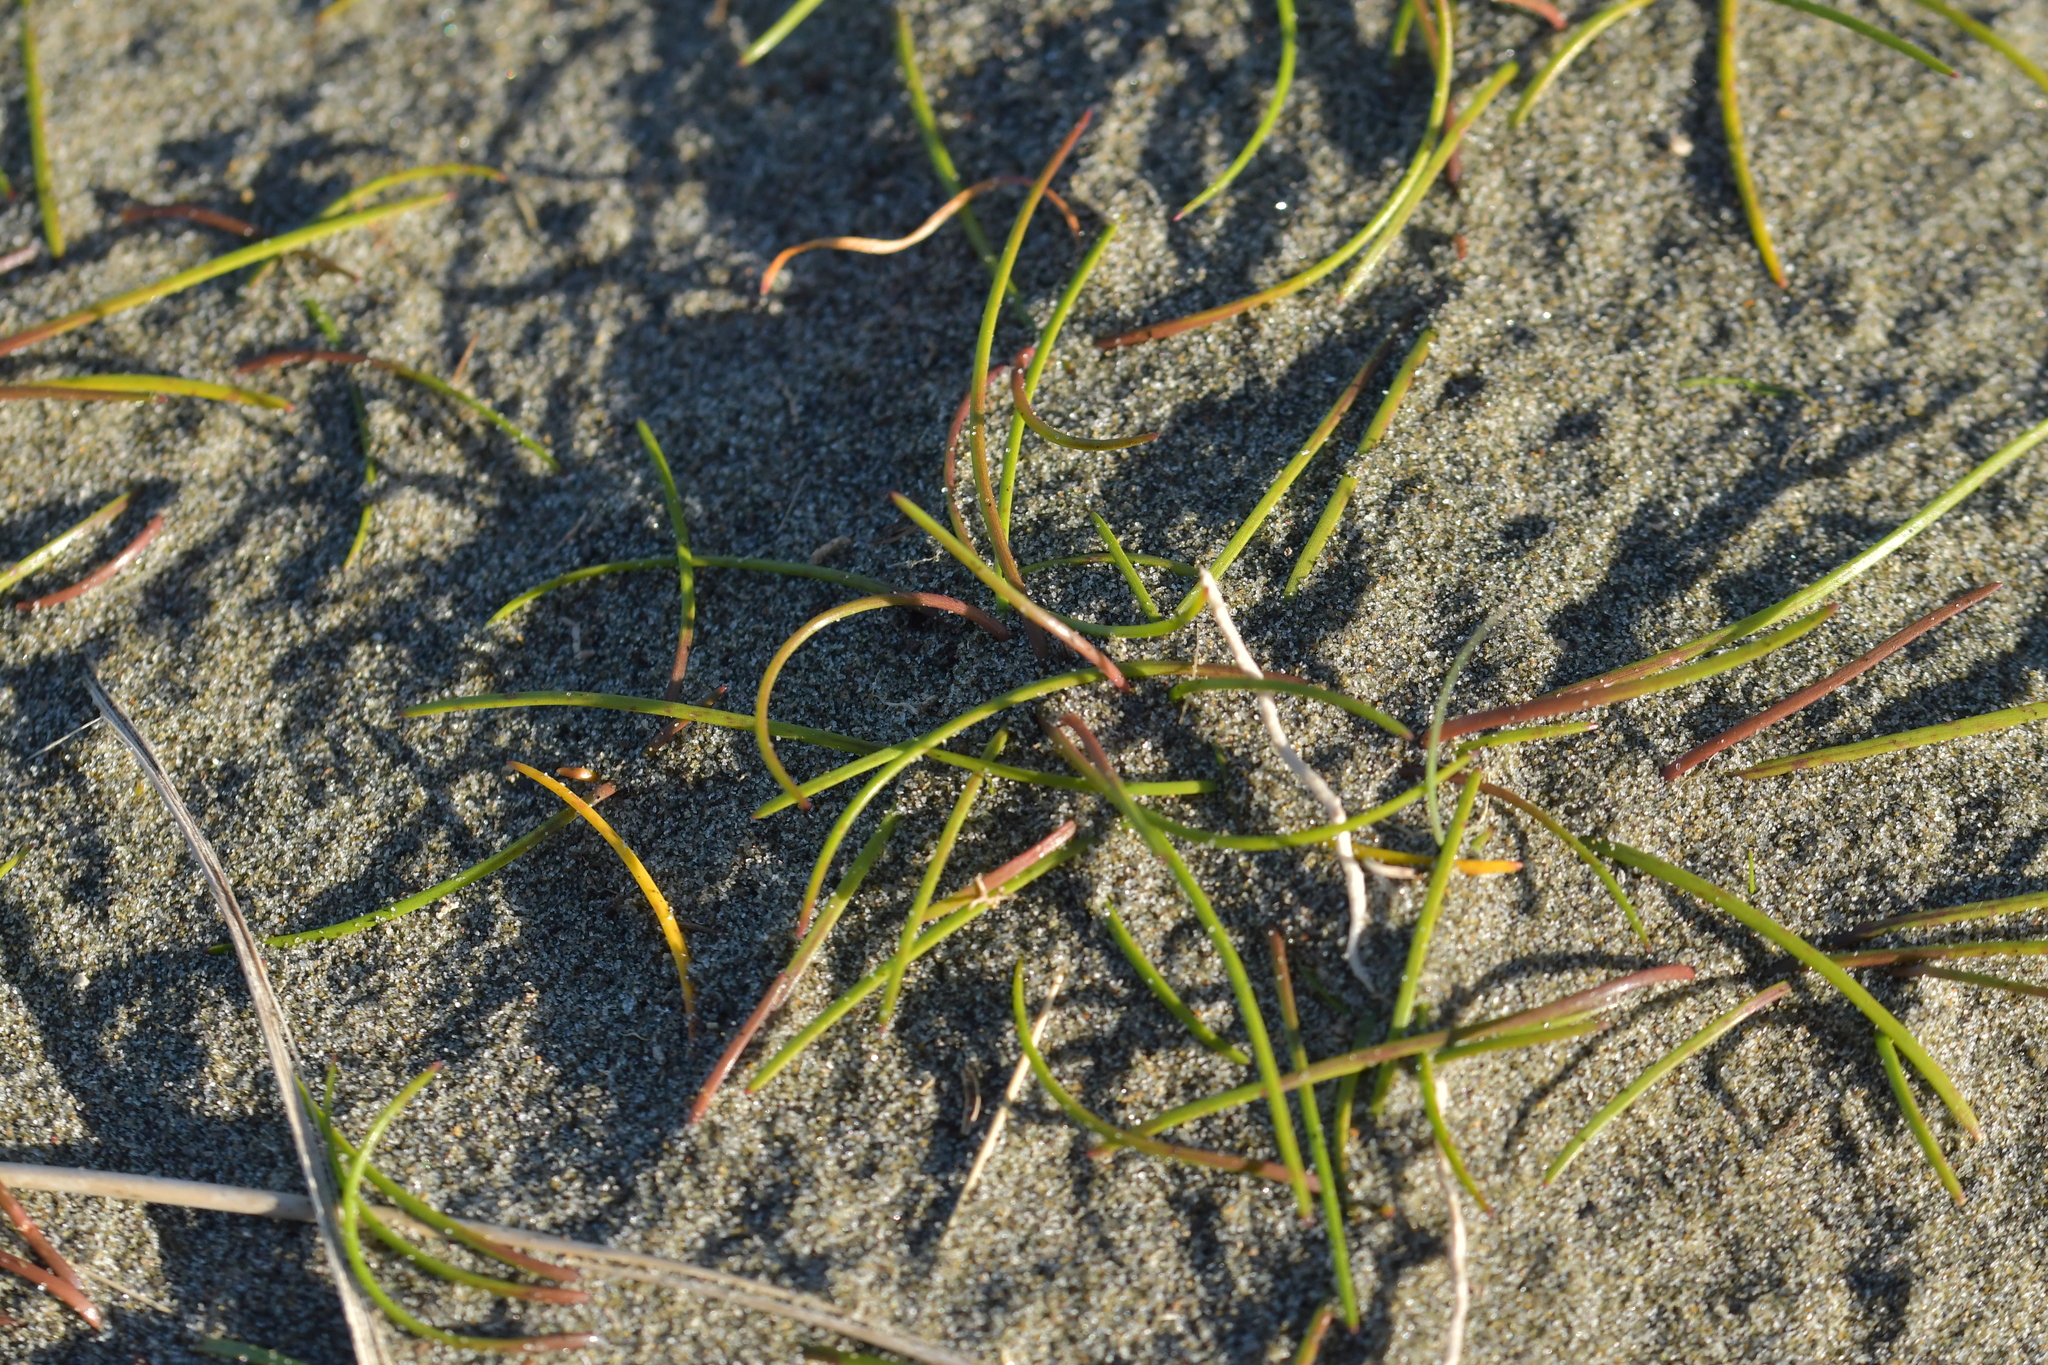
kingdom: Plantae
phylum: Tracheophyta
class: Liliopsida
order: Alismatales
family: Juncaginaceae
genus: Triglochin
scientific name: Triglochin striata
